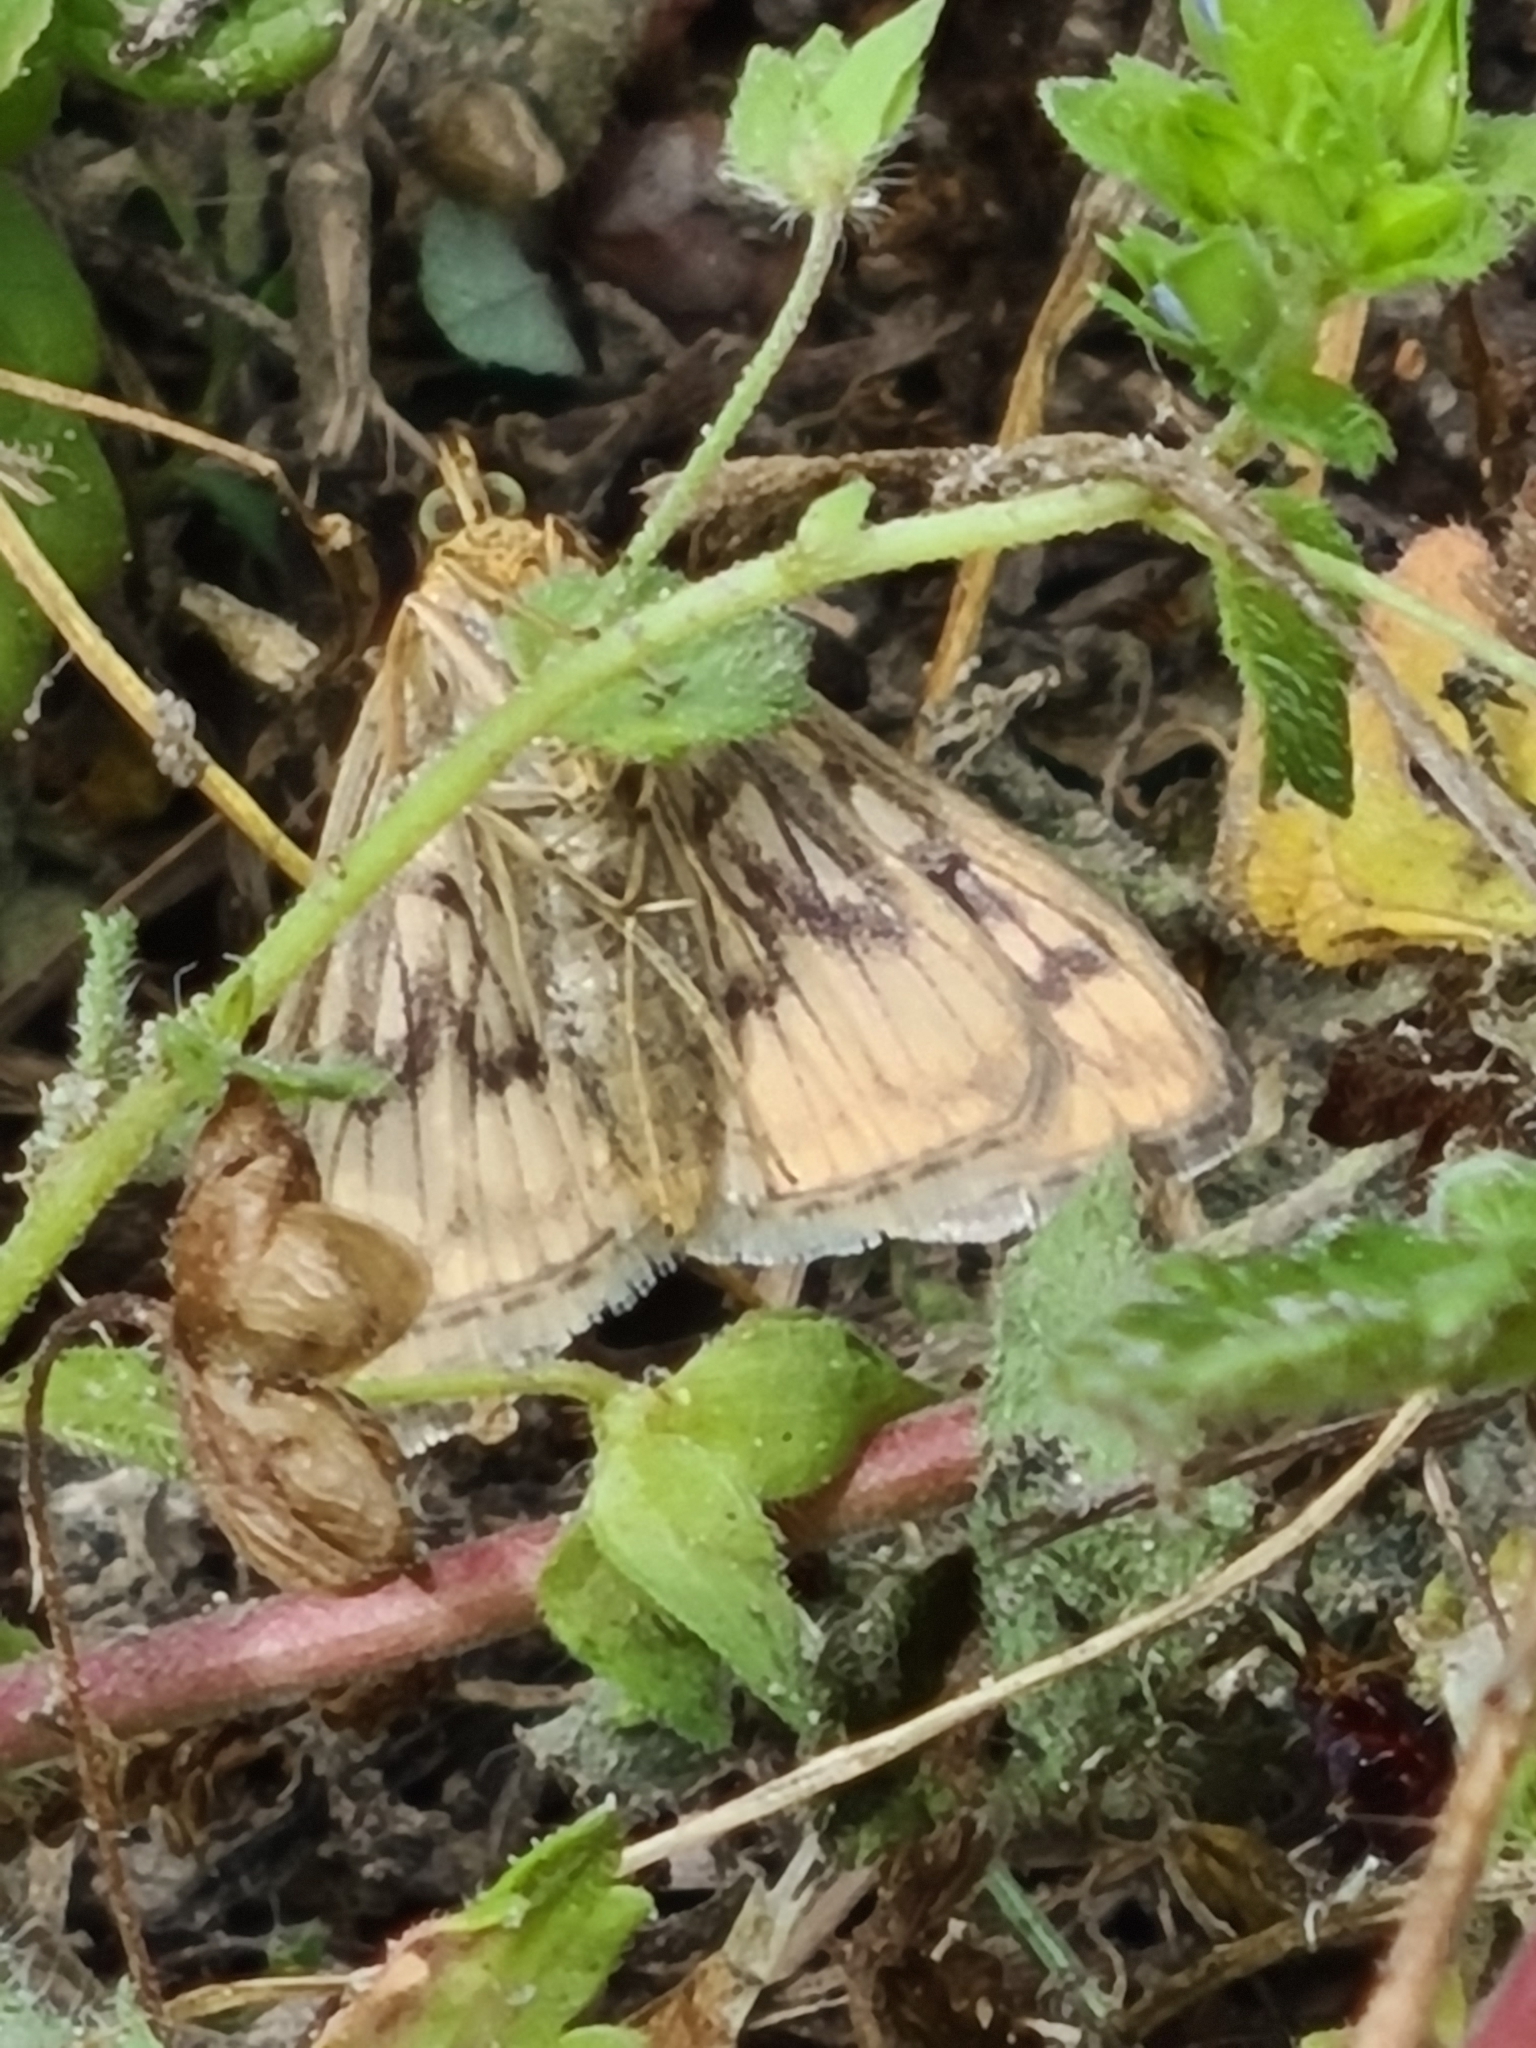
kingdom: Animalia
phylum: Arthropoda
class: Insecta
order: Lepidoptera
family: Crambidae
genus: Sitochroa
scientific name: Sitochroa verticalis
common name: Lesser pearl
